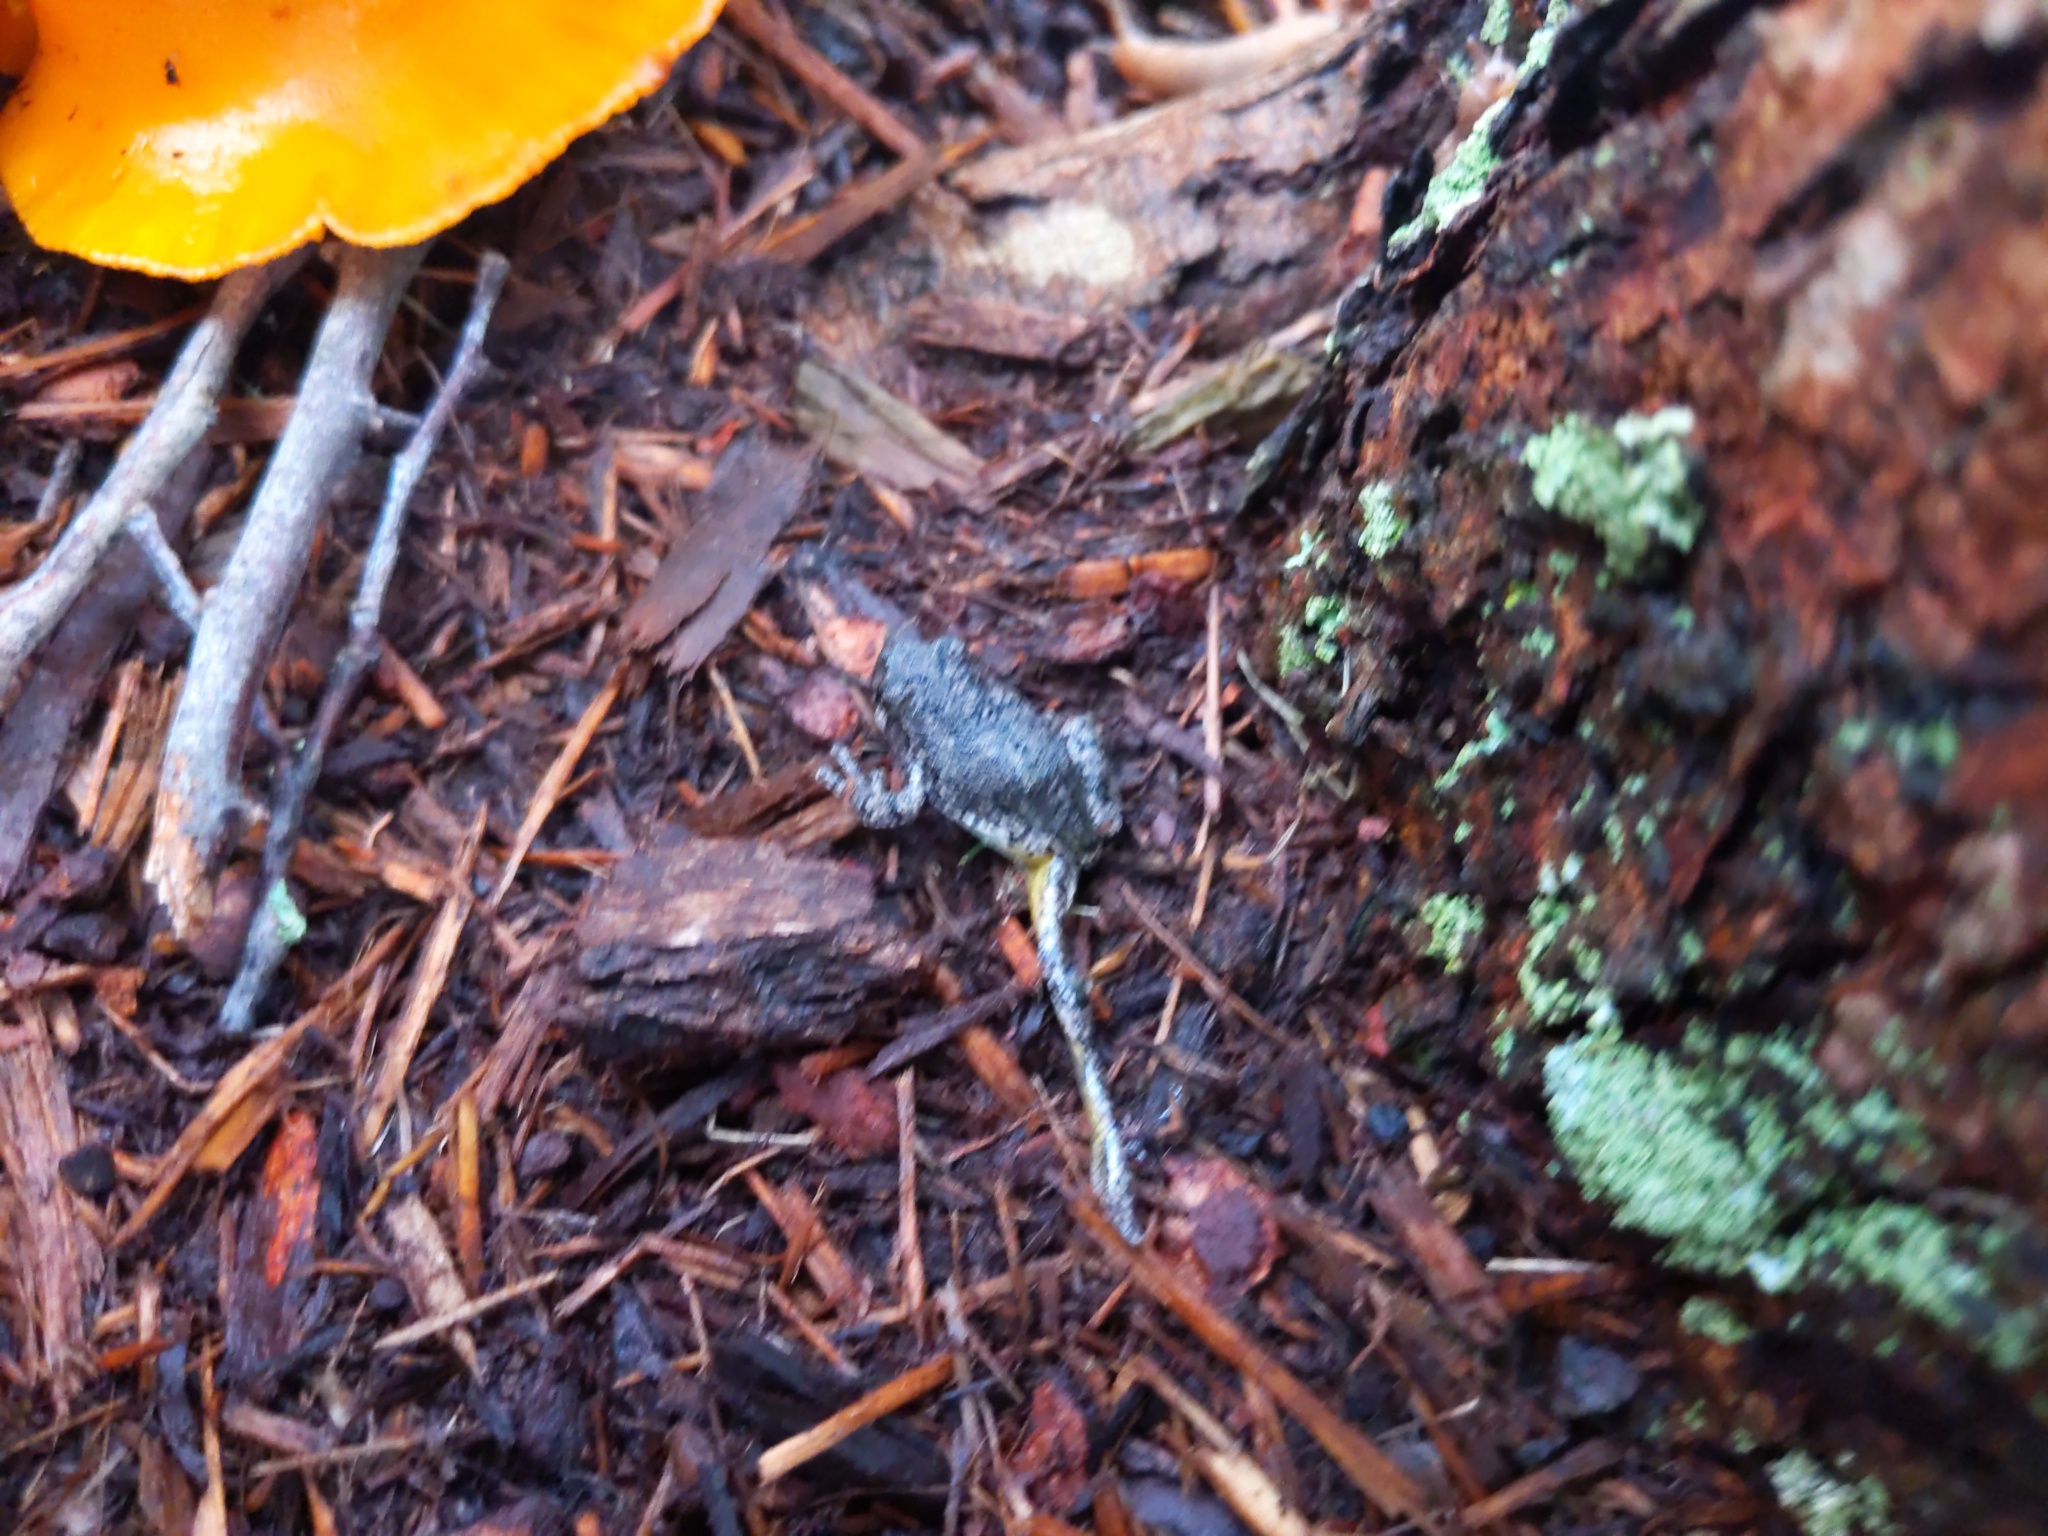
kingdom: Animalia
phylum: Chordata
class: Amphibia
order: Anura
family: Hylidae
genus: Dryophytes
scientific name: Dryophytes versicolor
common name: Gray treefrog
